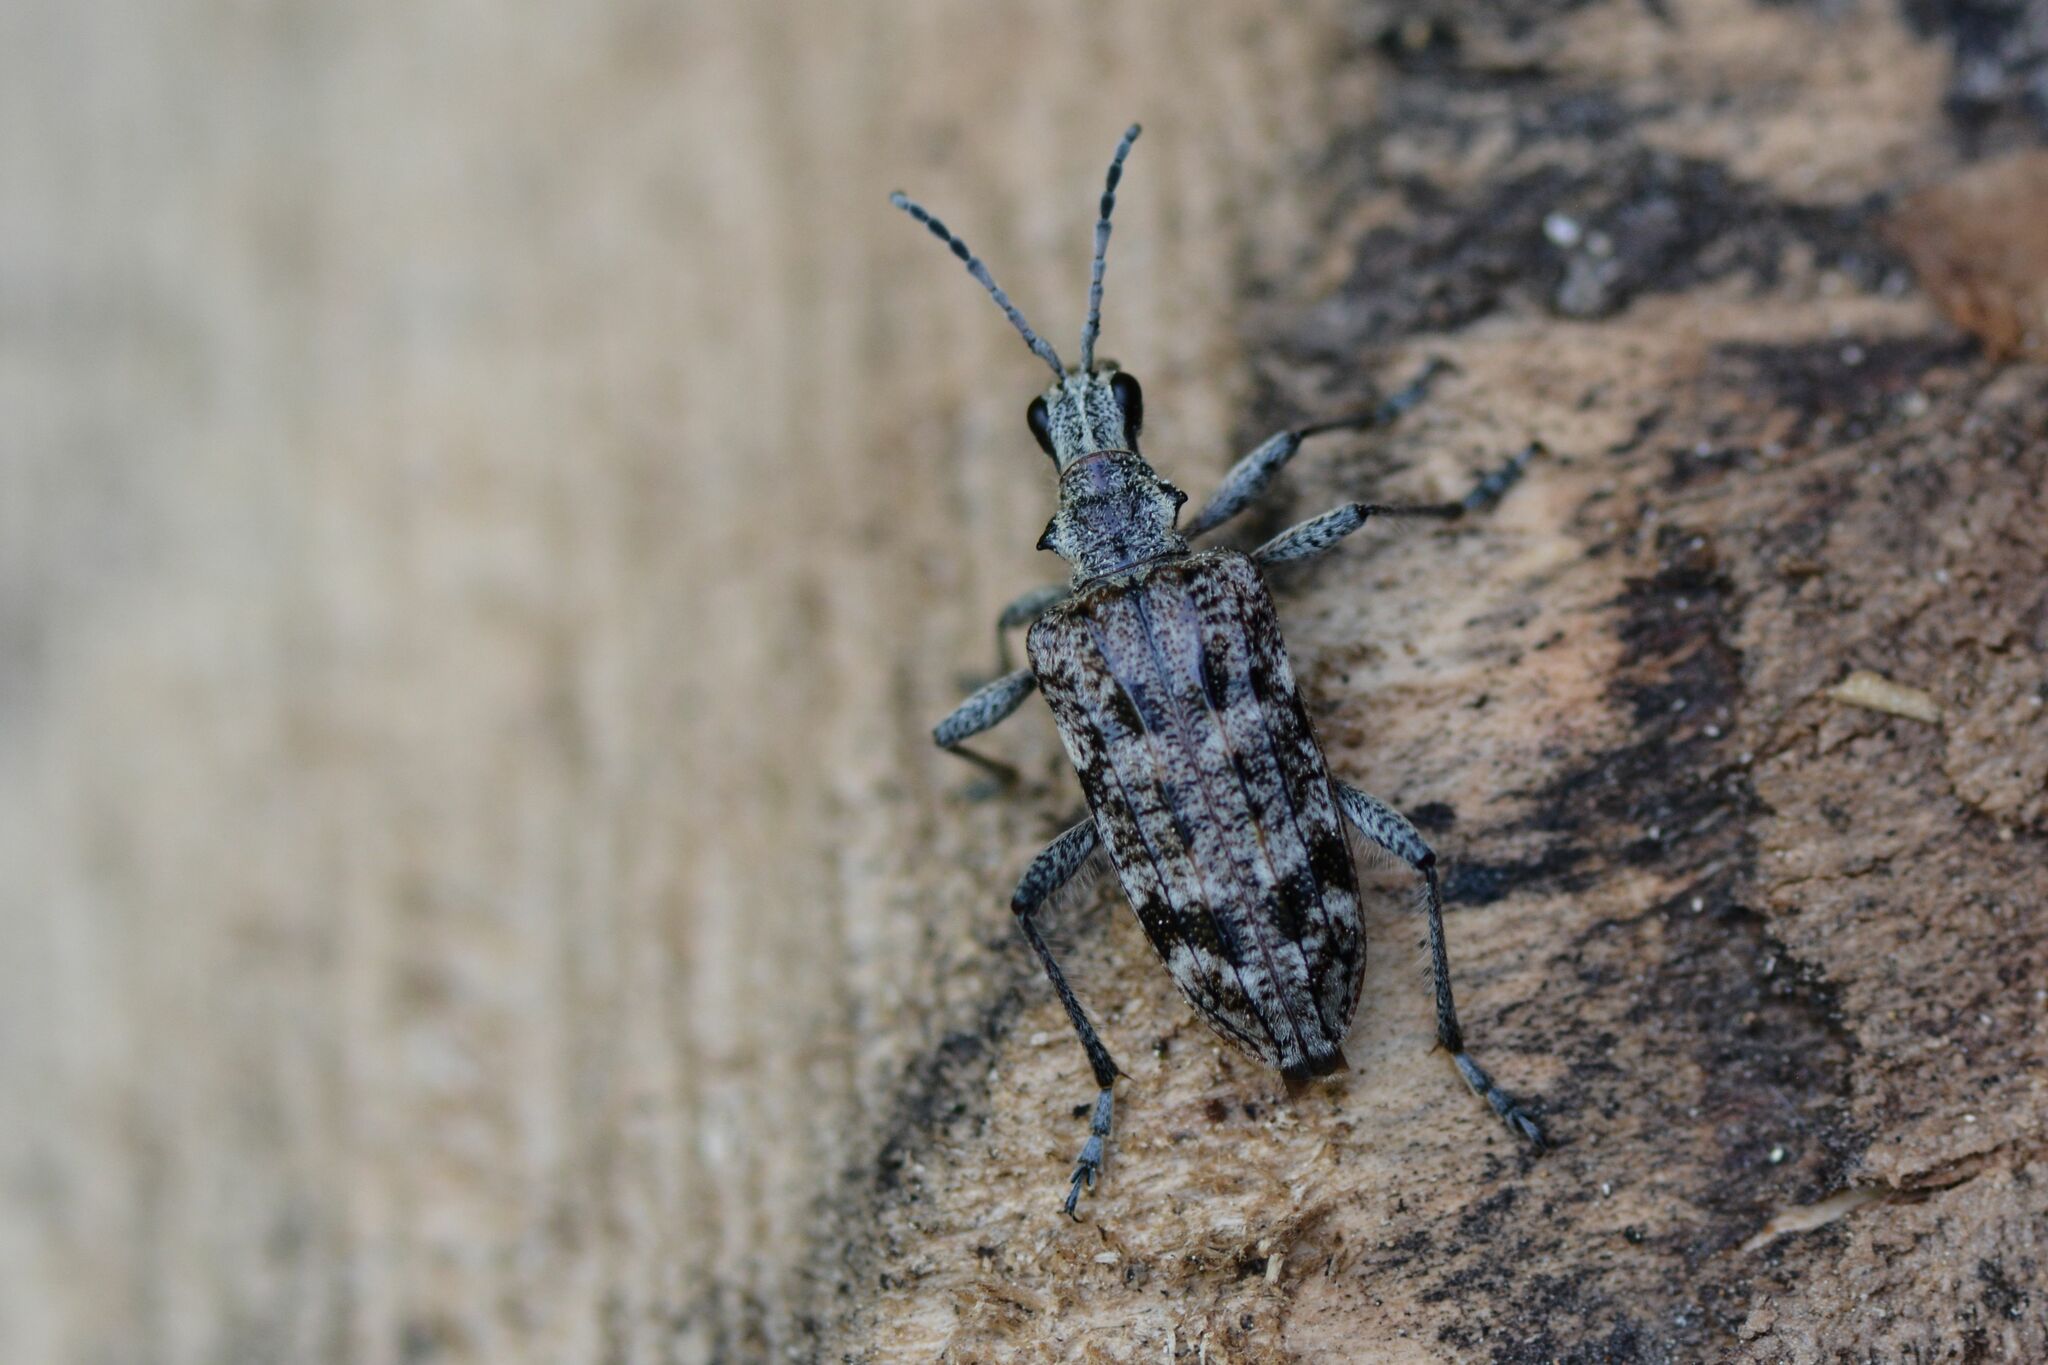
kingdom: Animalia
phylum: Arthropoda
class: Insecta
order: Coleoptera
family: Cerambycidae
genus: Rhagium
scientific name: Rhagium inquisitor
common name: Ribbed pine borer
